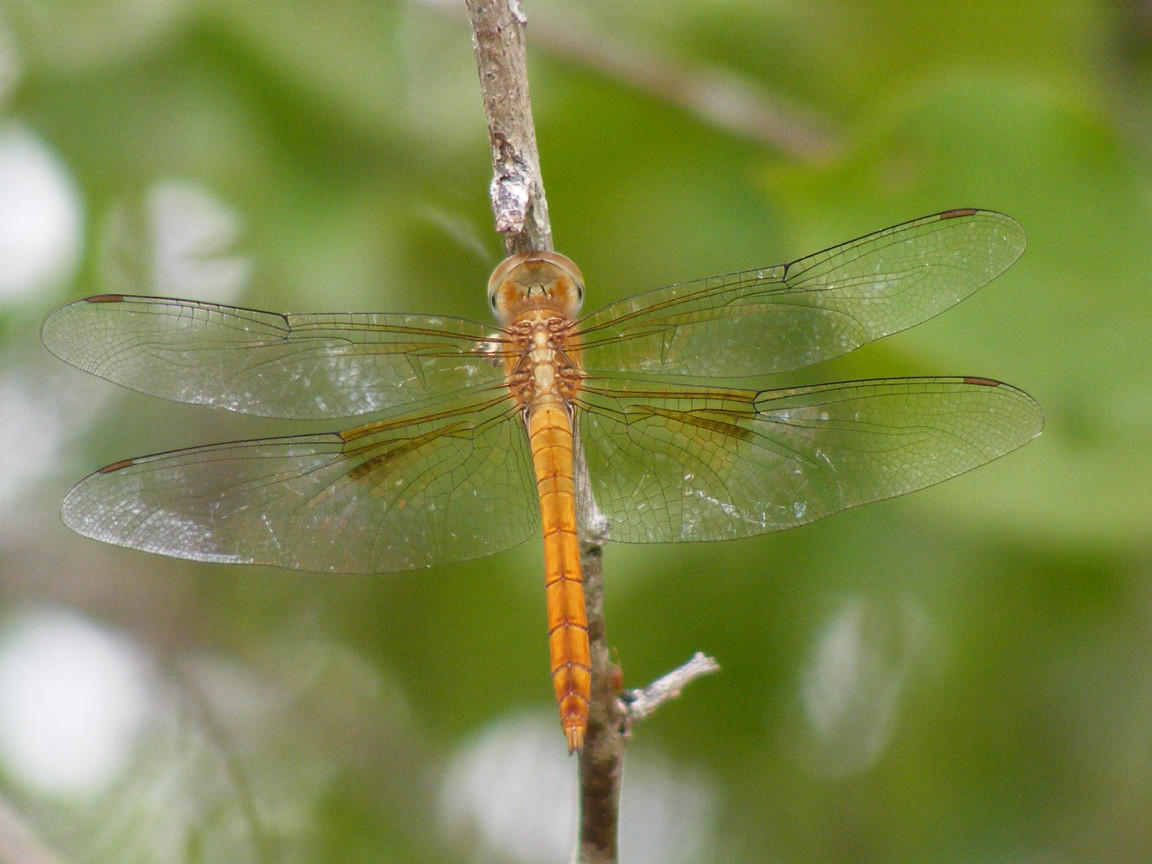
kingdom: Animalia
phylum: Arthropoda
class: Insecta
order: Odonata
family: Libellulidae
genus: Tholymis
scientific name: Tholymis tillarga
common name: Coral-tailed cloud wing
